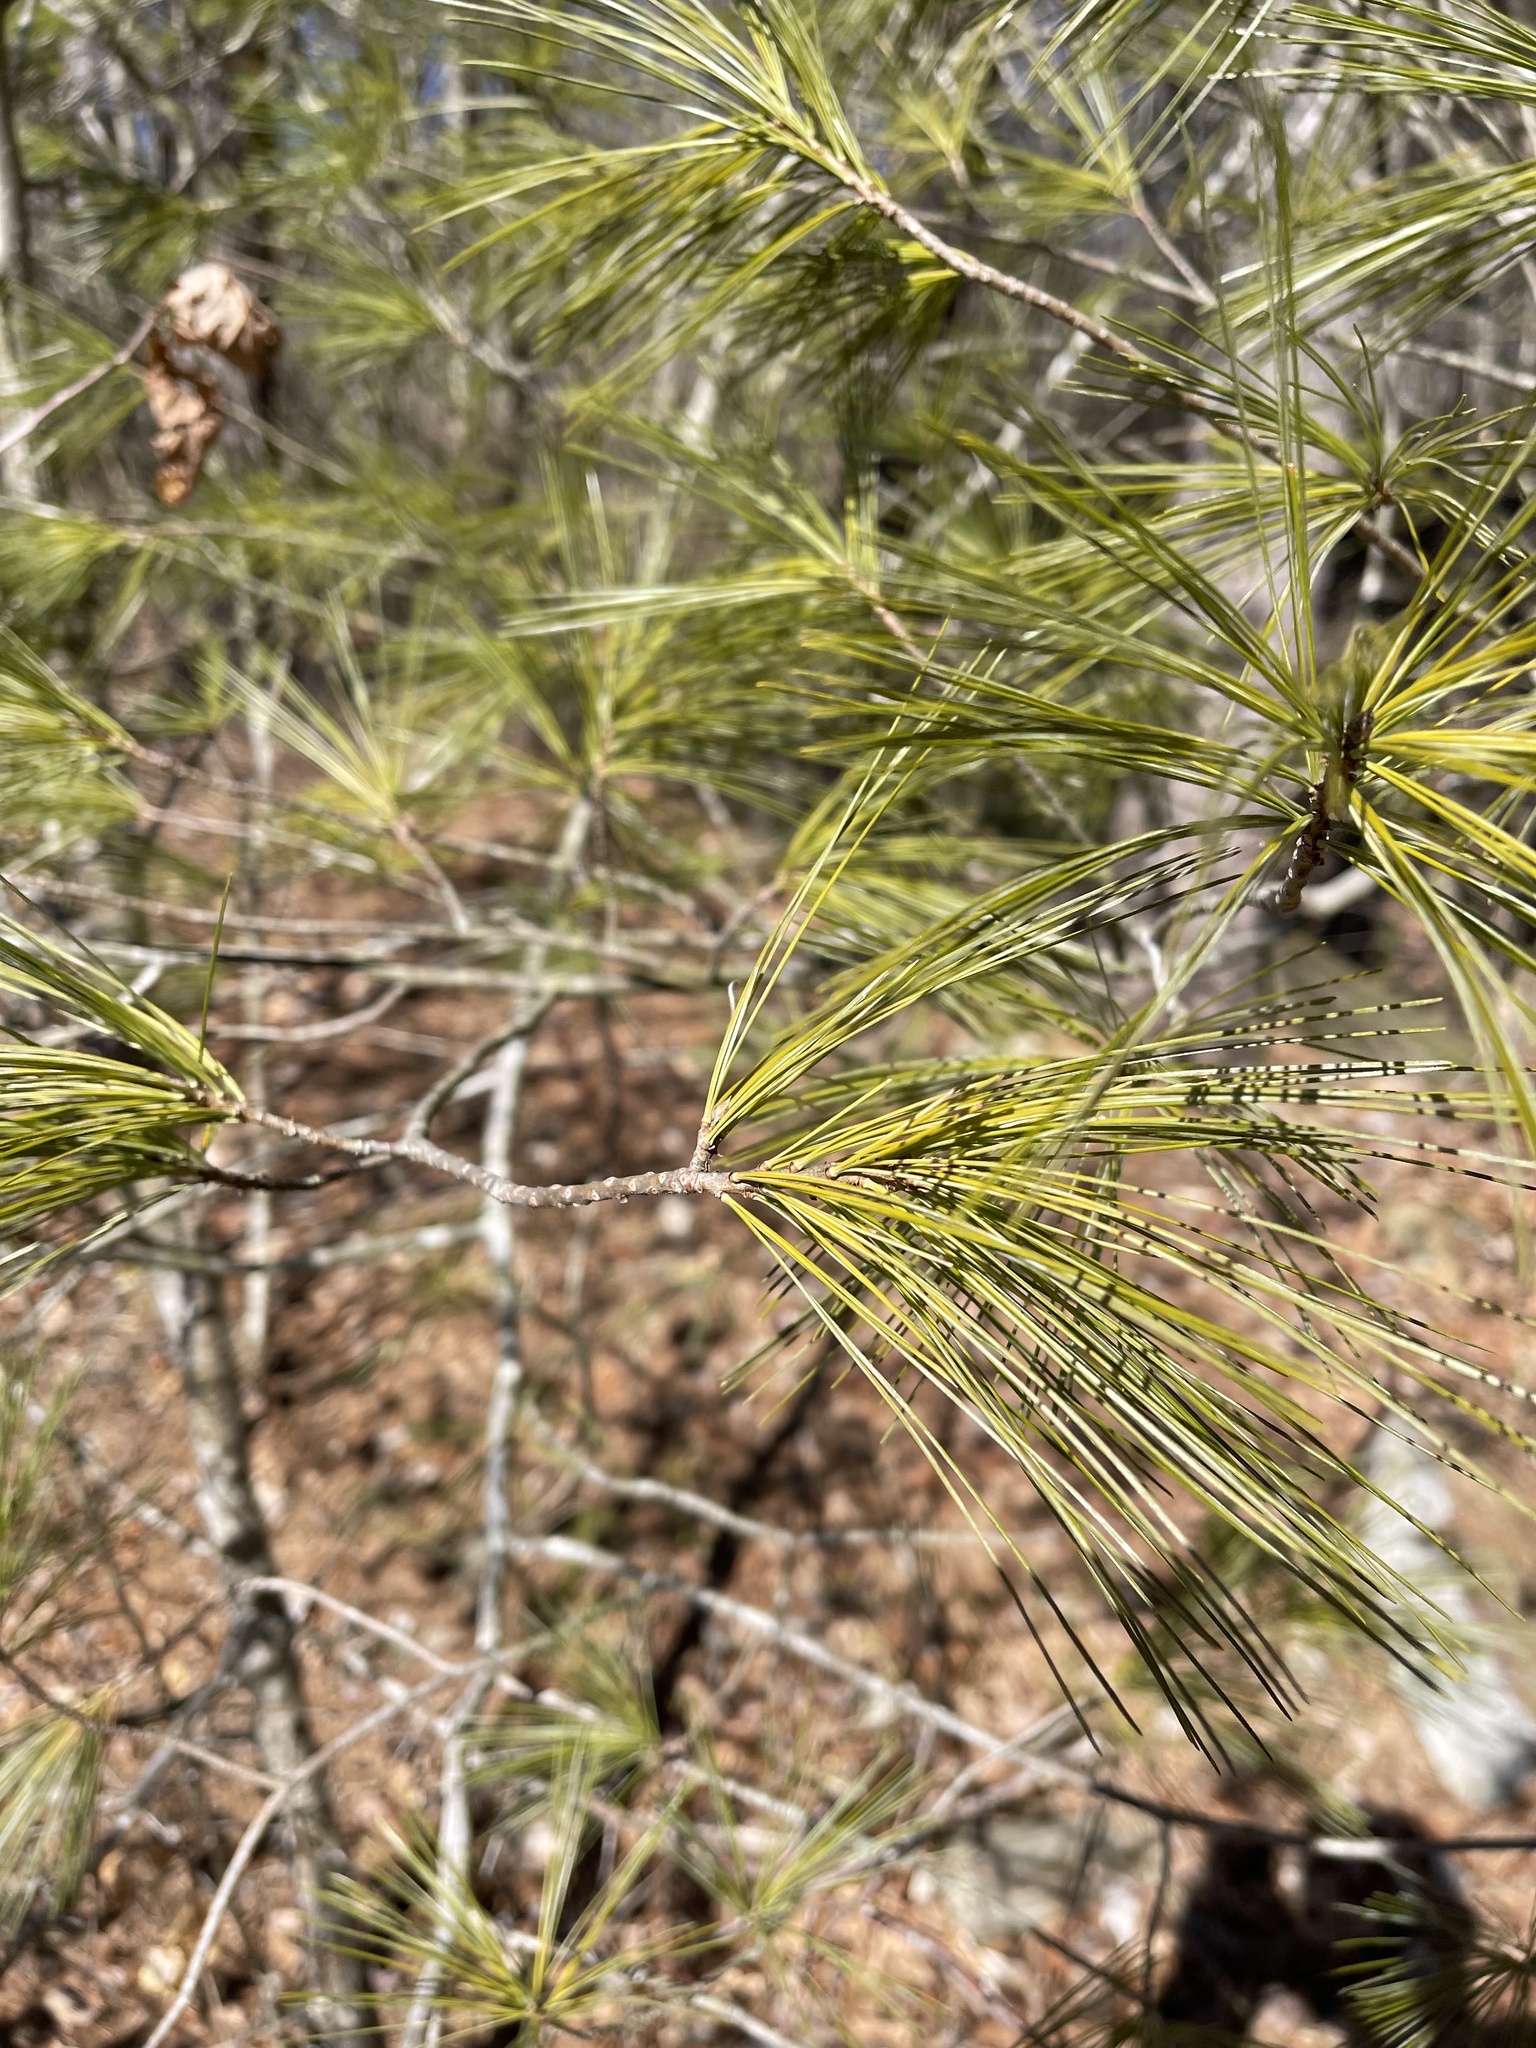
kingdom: Plantae
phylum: Tracheophyta
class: Pinopsida
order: Pinales
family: Pinaceae
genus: Pinus
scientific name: Pinus strobus
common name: Weymouth pine
